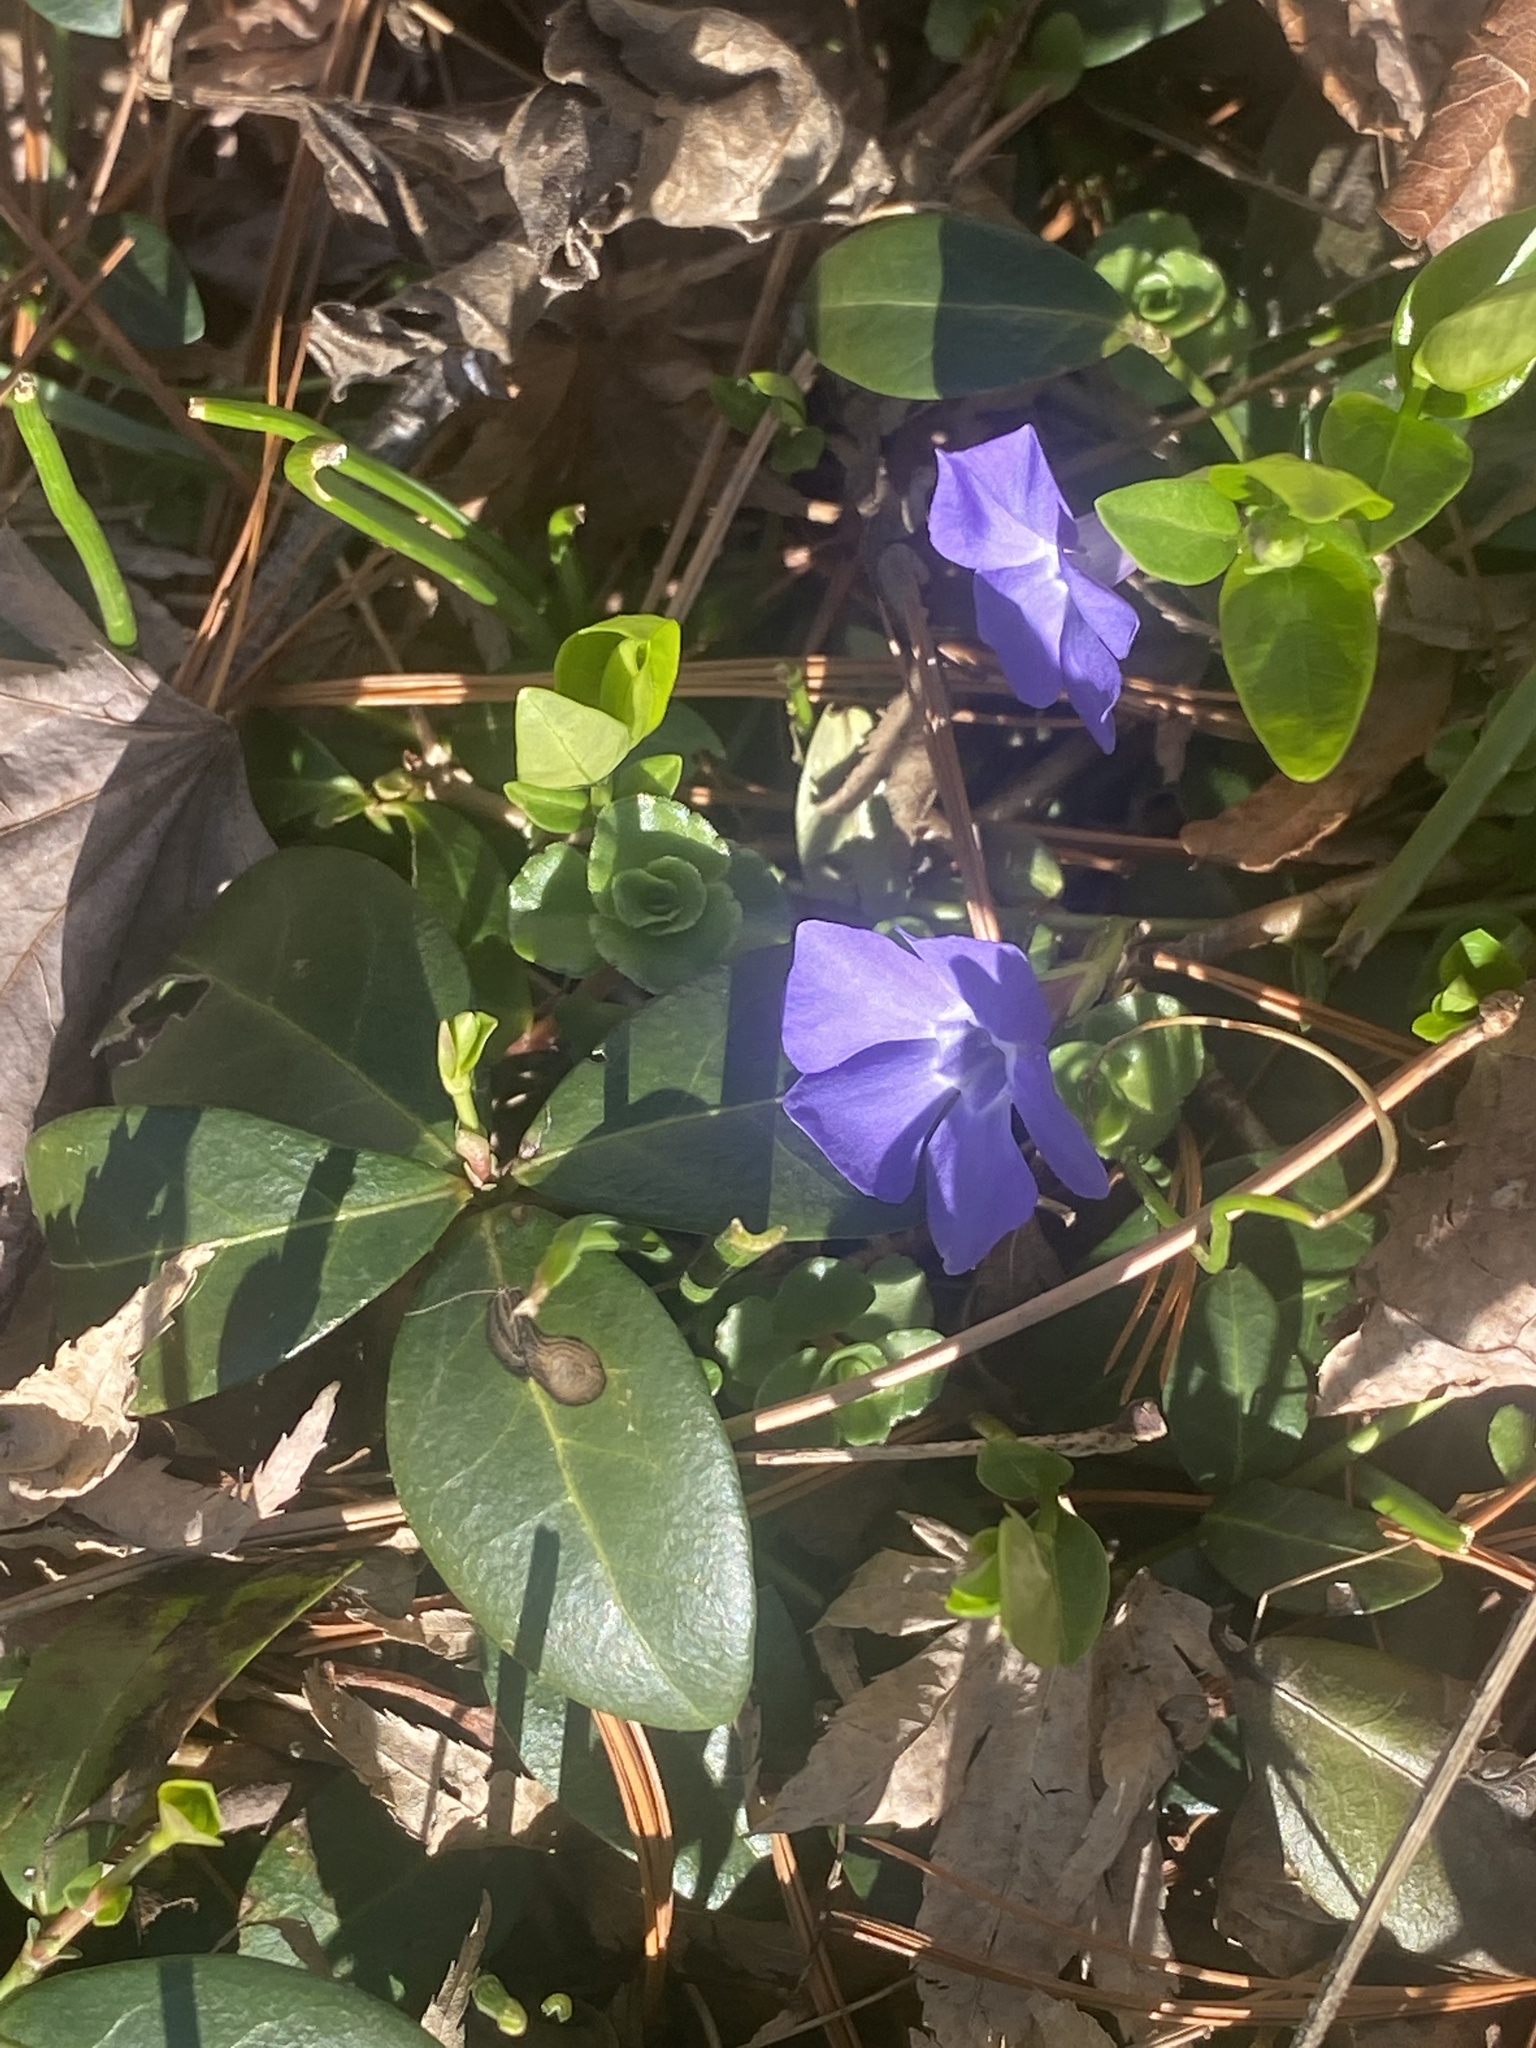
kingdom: Plantae
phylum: Tracheophyta
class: Magnoliopsida
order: Gentianales
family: Apocynaceae
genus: Vinca
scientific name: Vinca minor
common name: Lesser periwinkle
